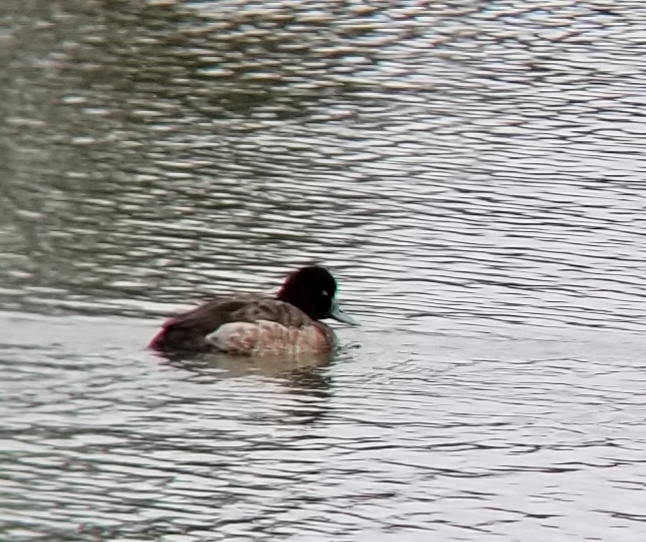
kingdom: Animalia
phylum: Chordata
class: Aves
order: Anseriformes
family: Anatidae
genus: Aythya
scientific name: Aythya affinis
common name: Lesser scaup
